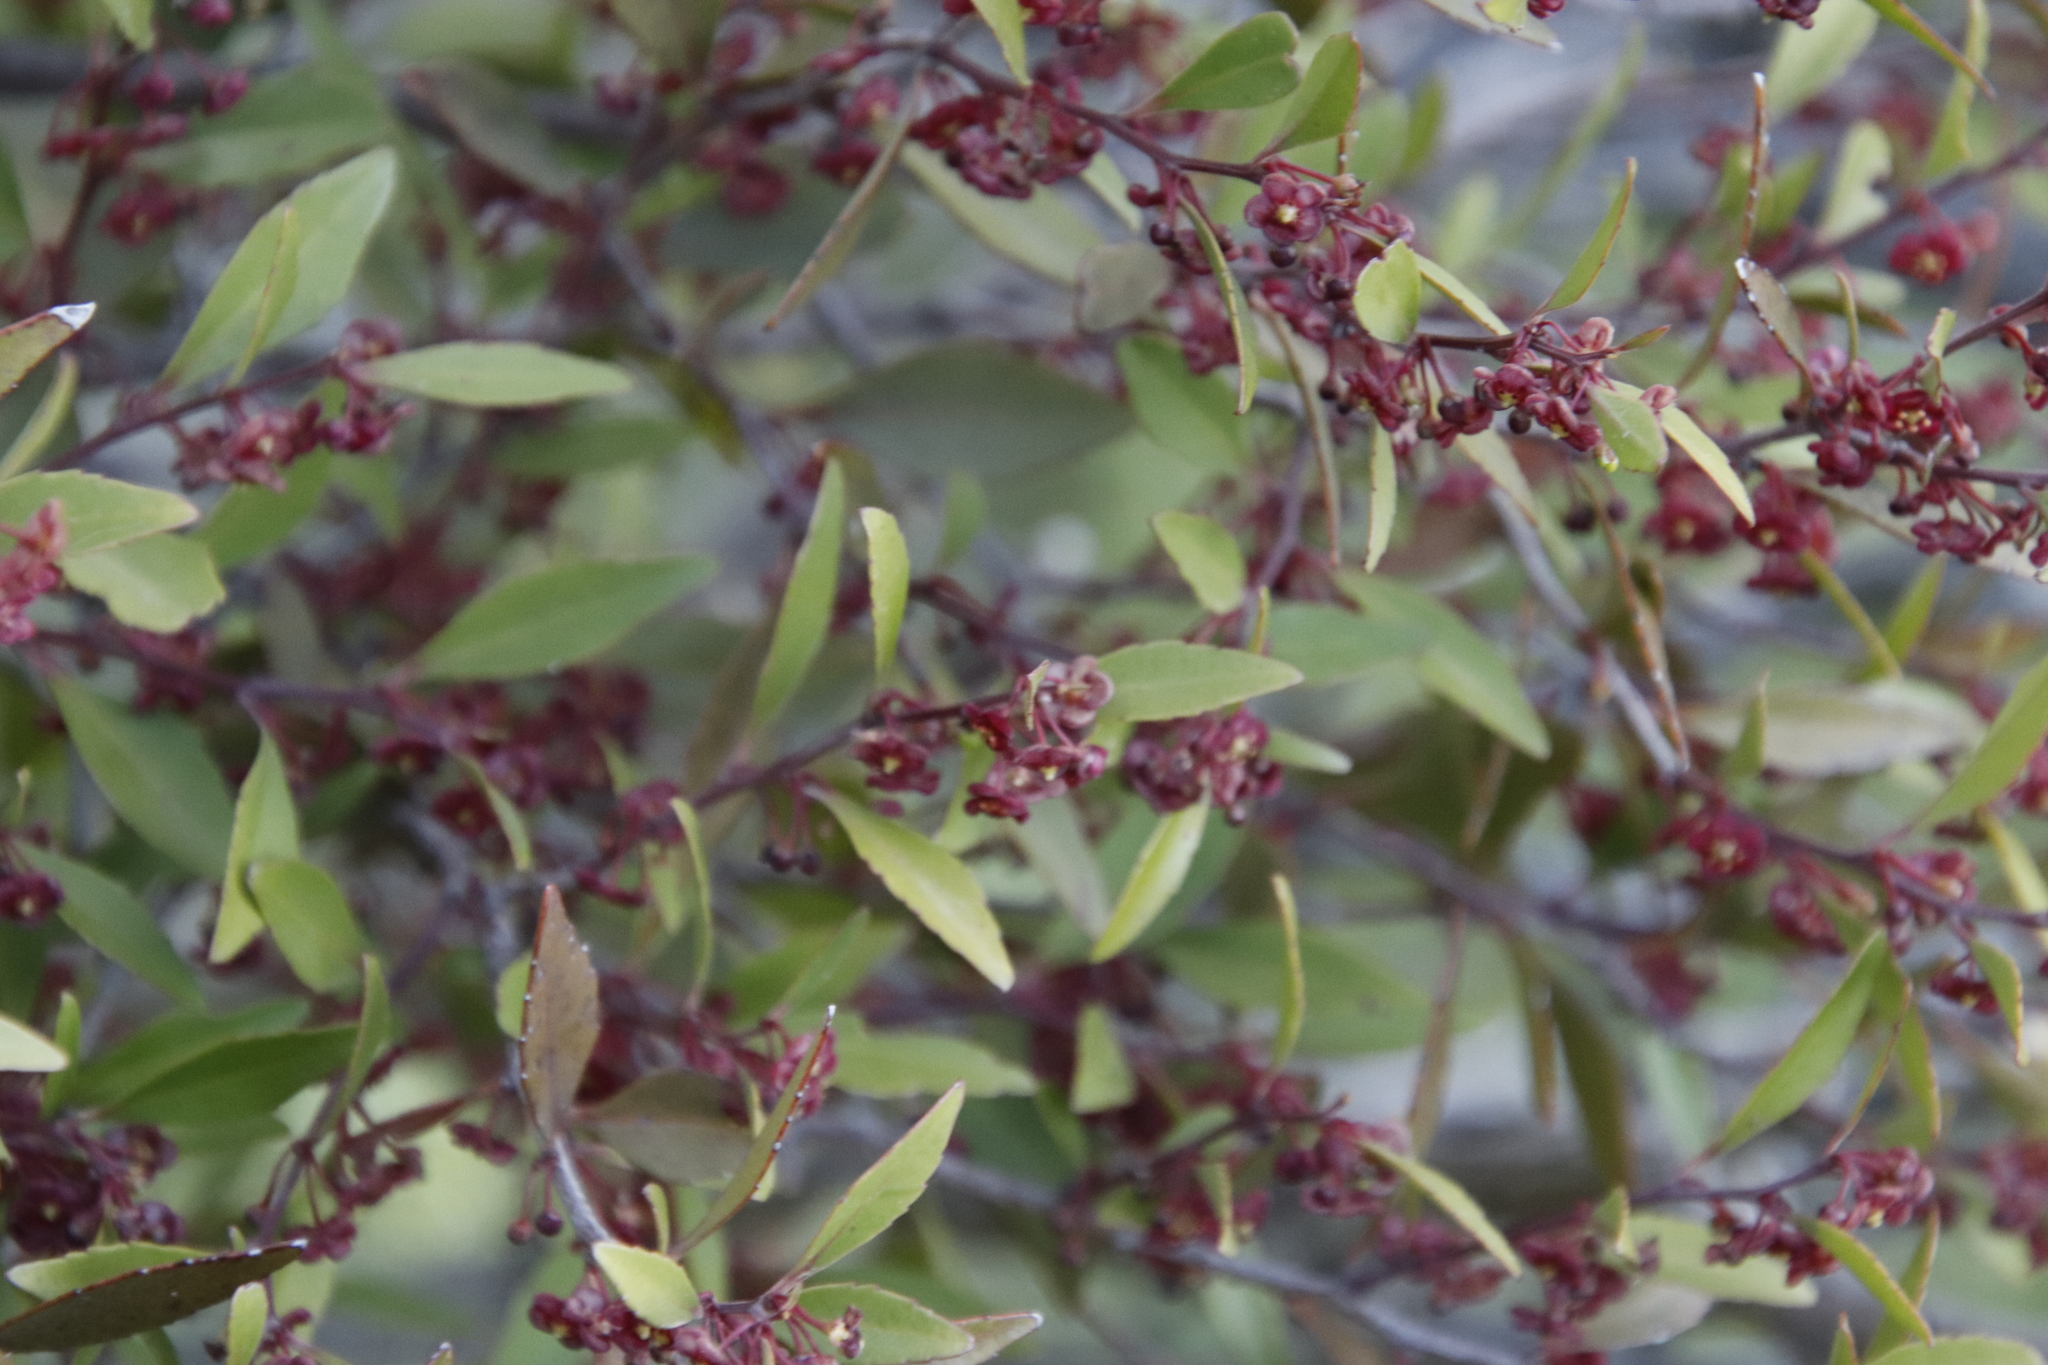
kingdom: Plantae
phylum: Tracheophyta
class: Magnoliopsida
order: Celastrales
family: Celastraceae
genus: Gymnosporia
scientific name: Gymnosporia acuminata
